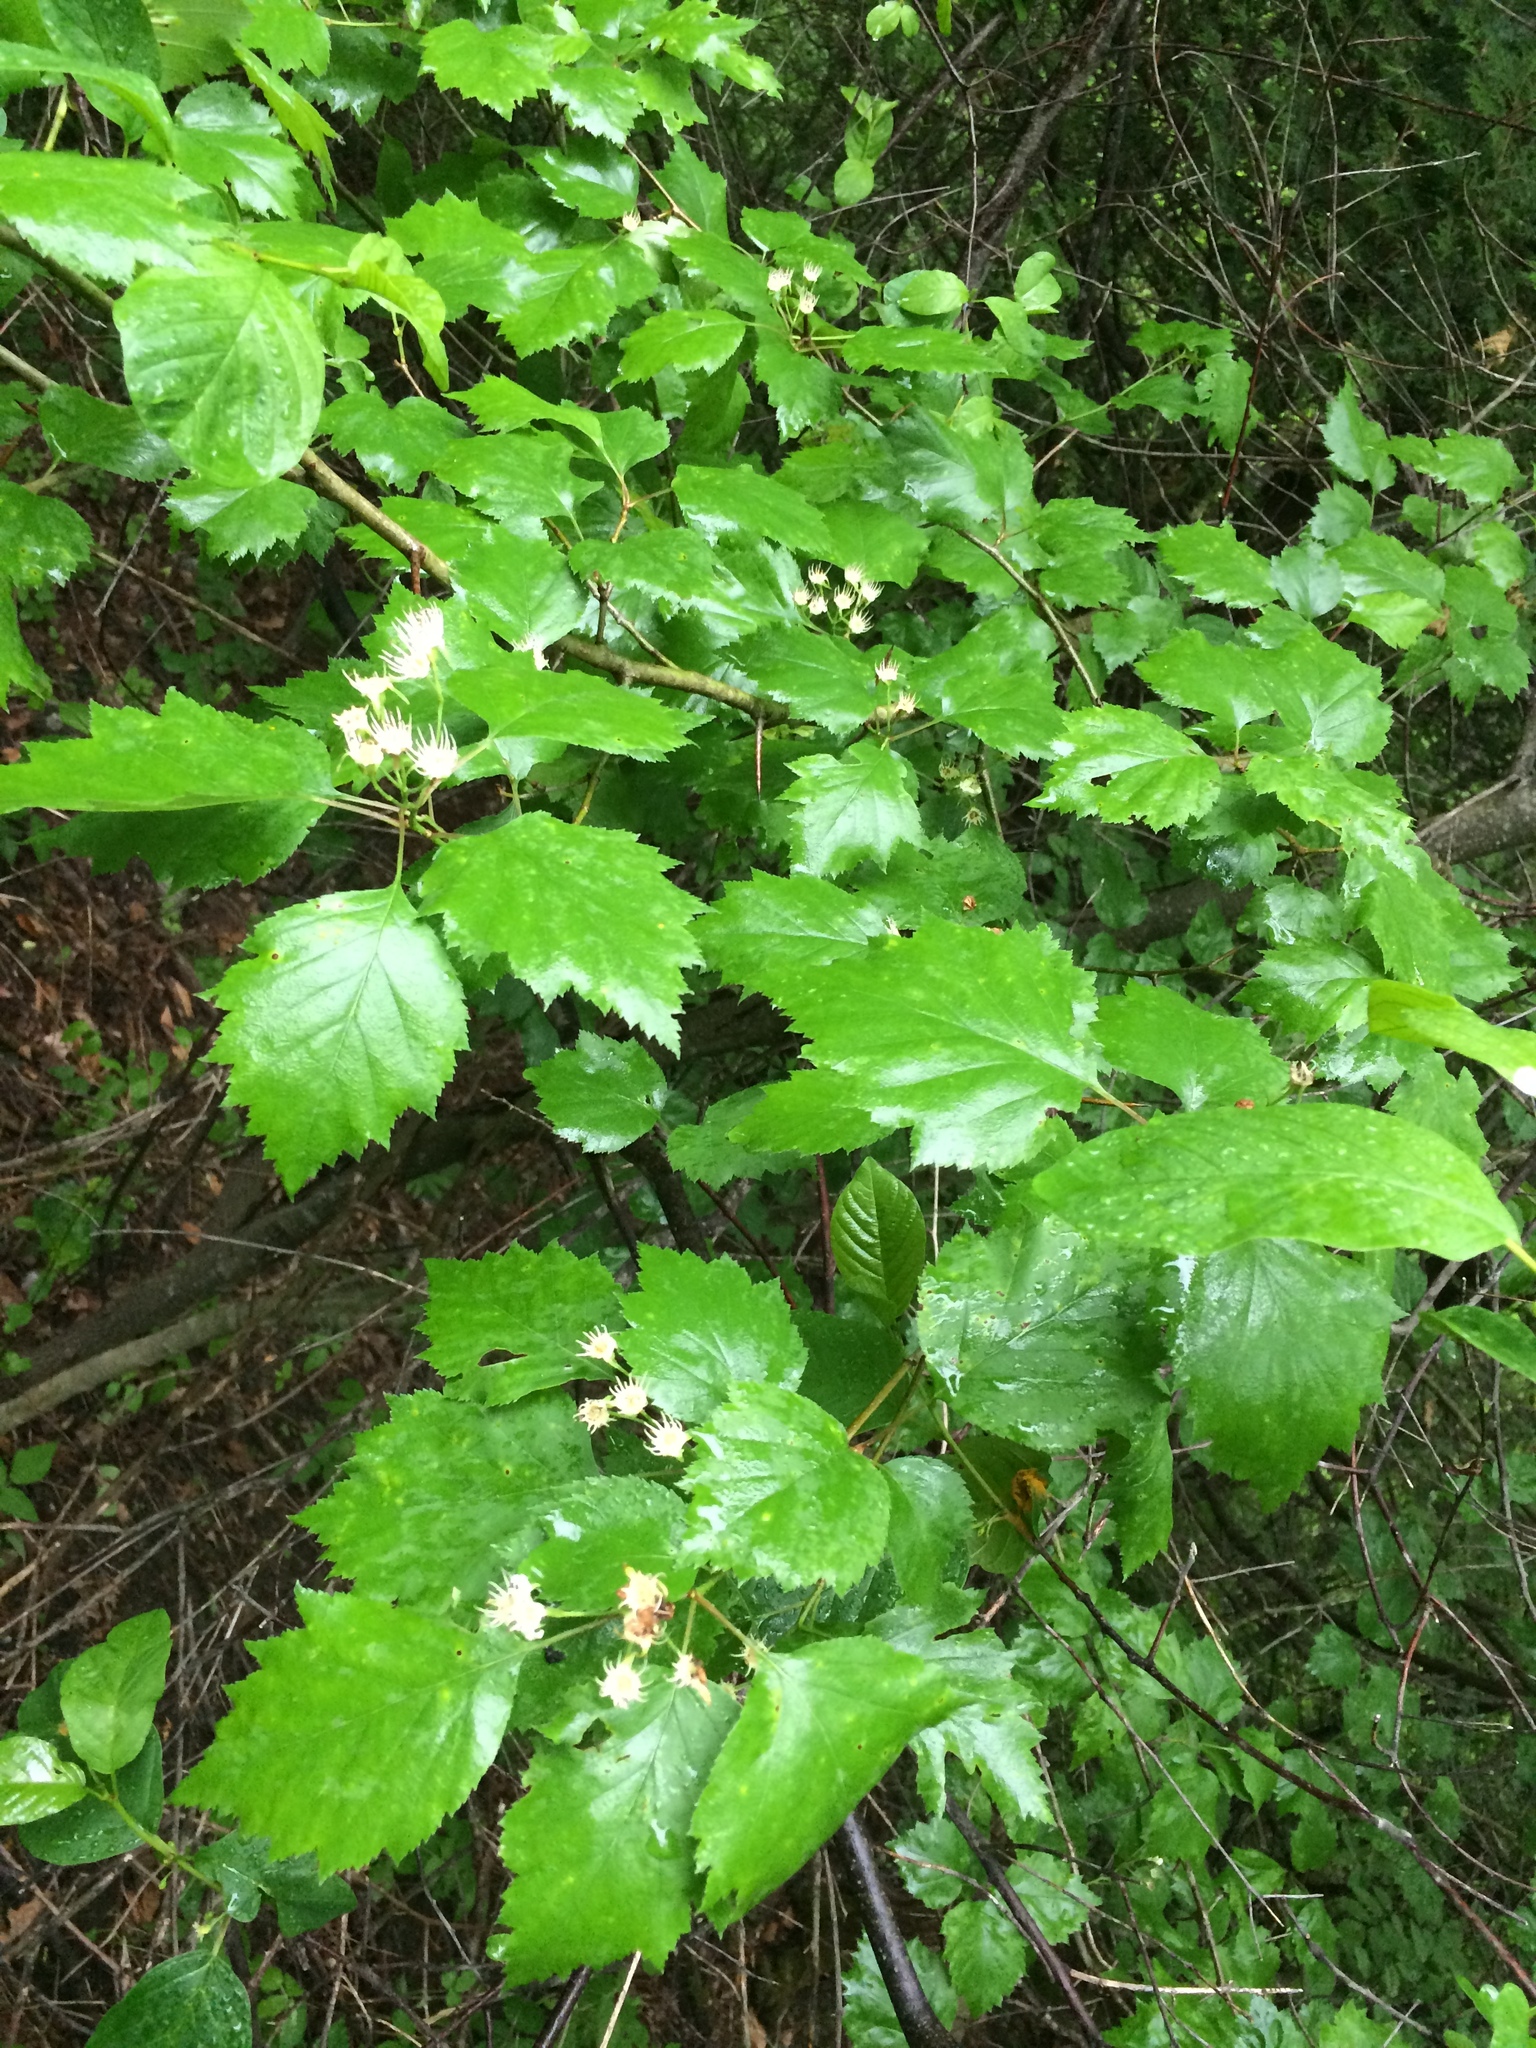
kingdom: Plantae
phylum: Tracheophyta
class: Magnoliopsida
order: Rosales
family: Rosaceae
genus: Crataegus
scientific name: Crataegus schuettei
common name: Schuette's hawthorn
